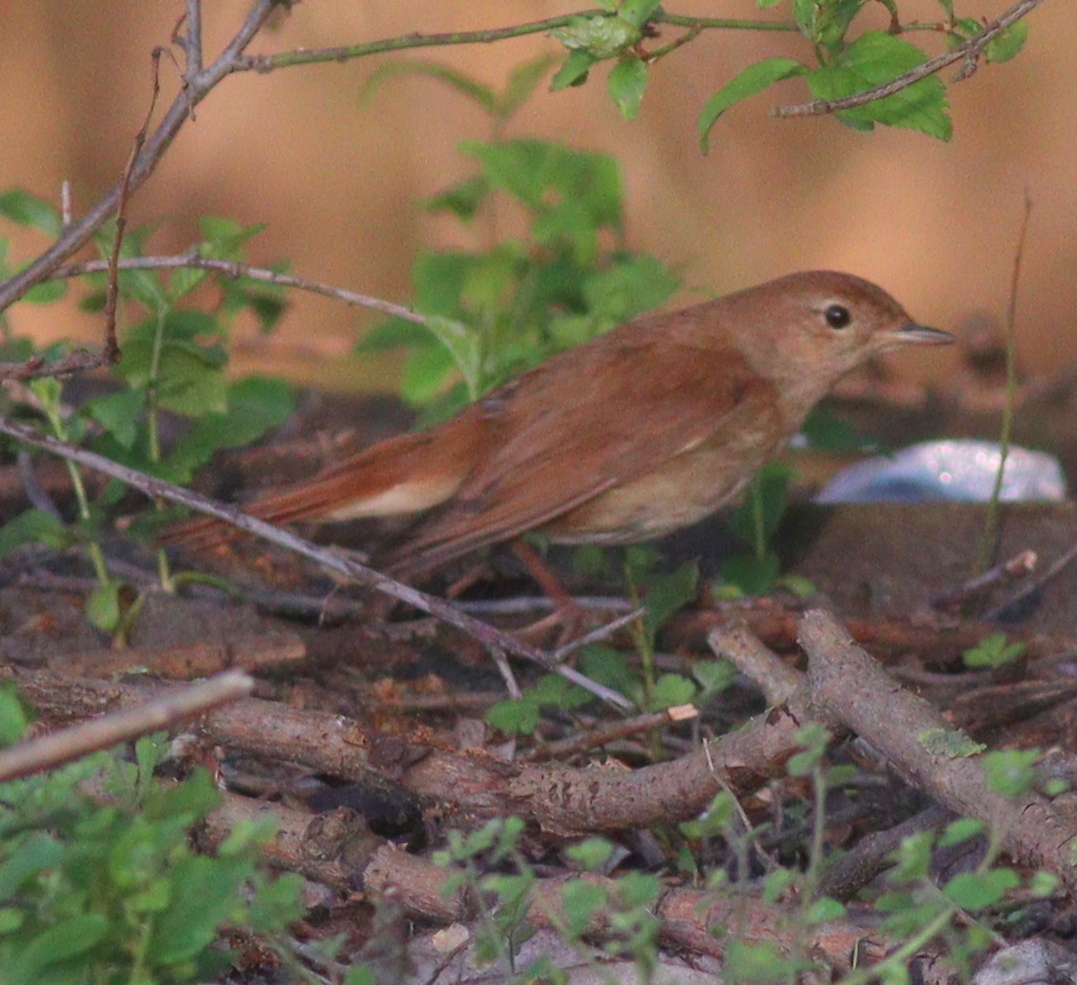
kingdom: Animalia
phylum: Chordata
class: Aves
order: Passeriformes
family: Muscicapidae
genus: Luscinia
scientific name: Luscinia megarhynchos
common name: Common nightingale
